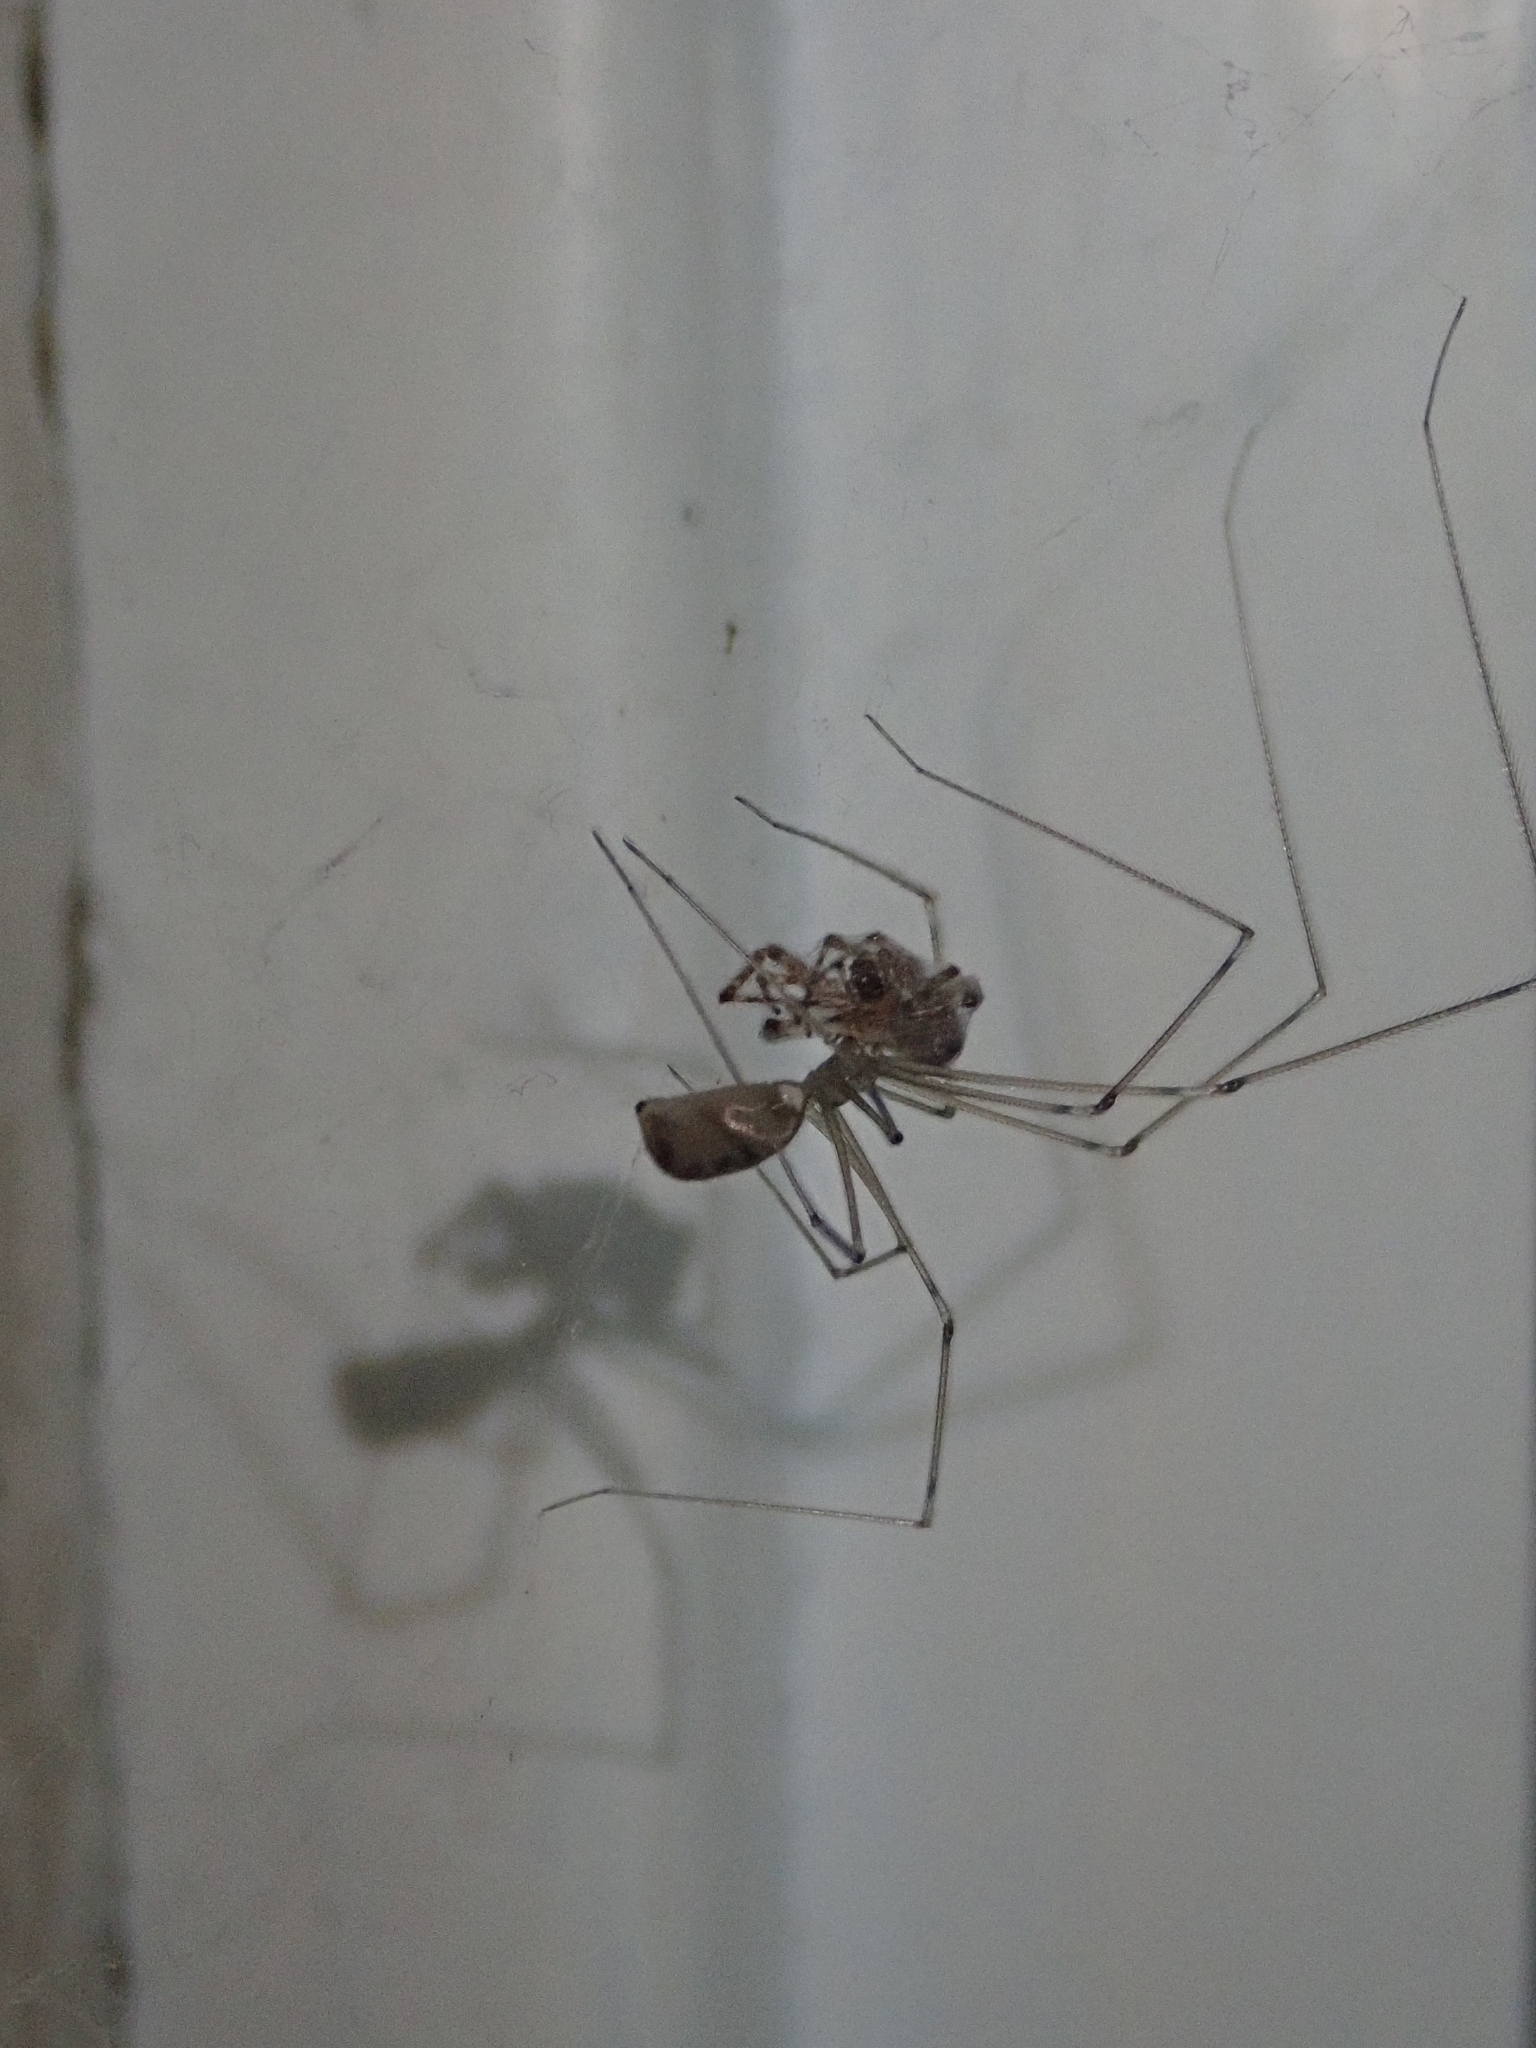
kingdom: Animalia
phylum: Arthropoda
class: Arachnida
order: Araneae
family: Pholcidae
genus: Pholcus
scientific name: Pholcus phalangioides
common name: Longbodied cellar spider
